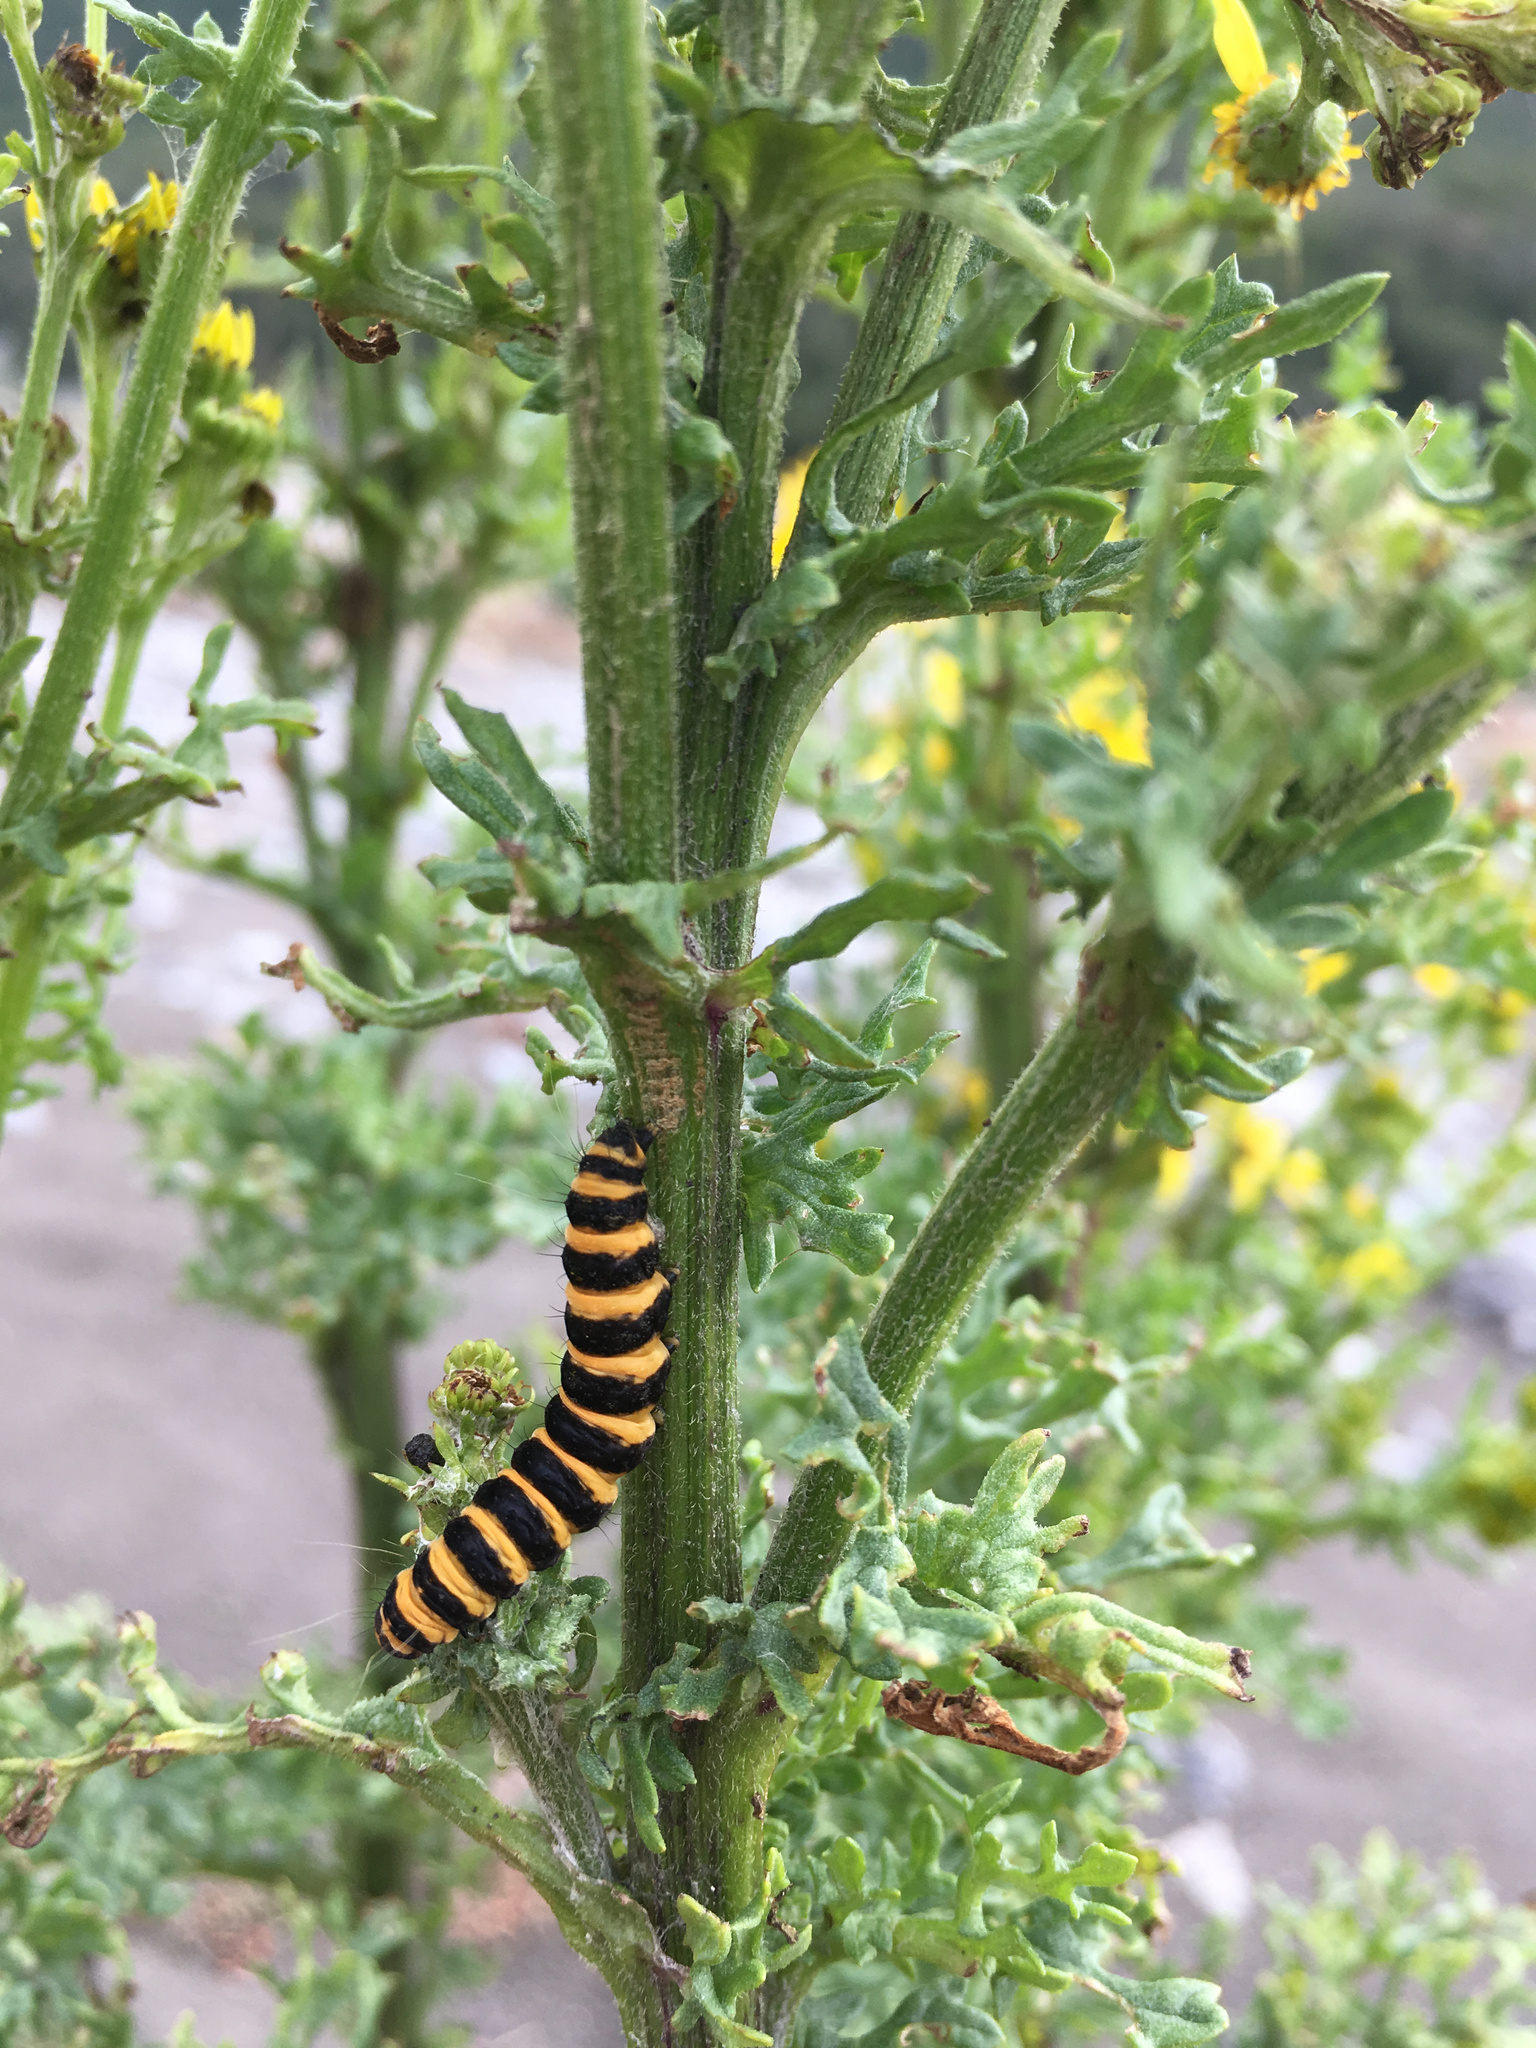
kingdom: Animalia
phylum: Arthropoda
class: Insecta
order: Lepidoptera
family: Erebidae
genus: Tyria
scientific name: Tyria jacobaeae
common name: Cinnabar
